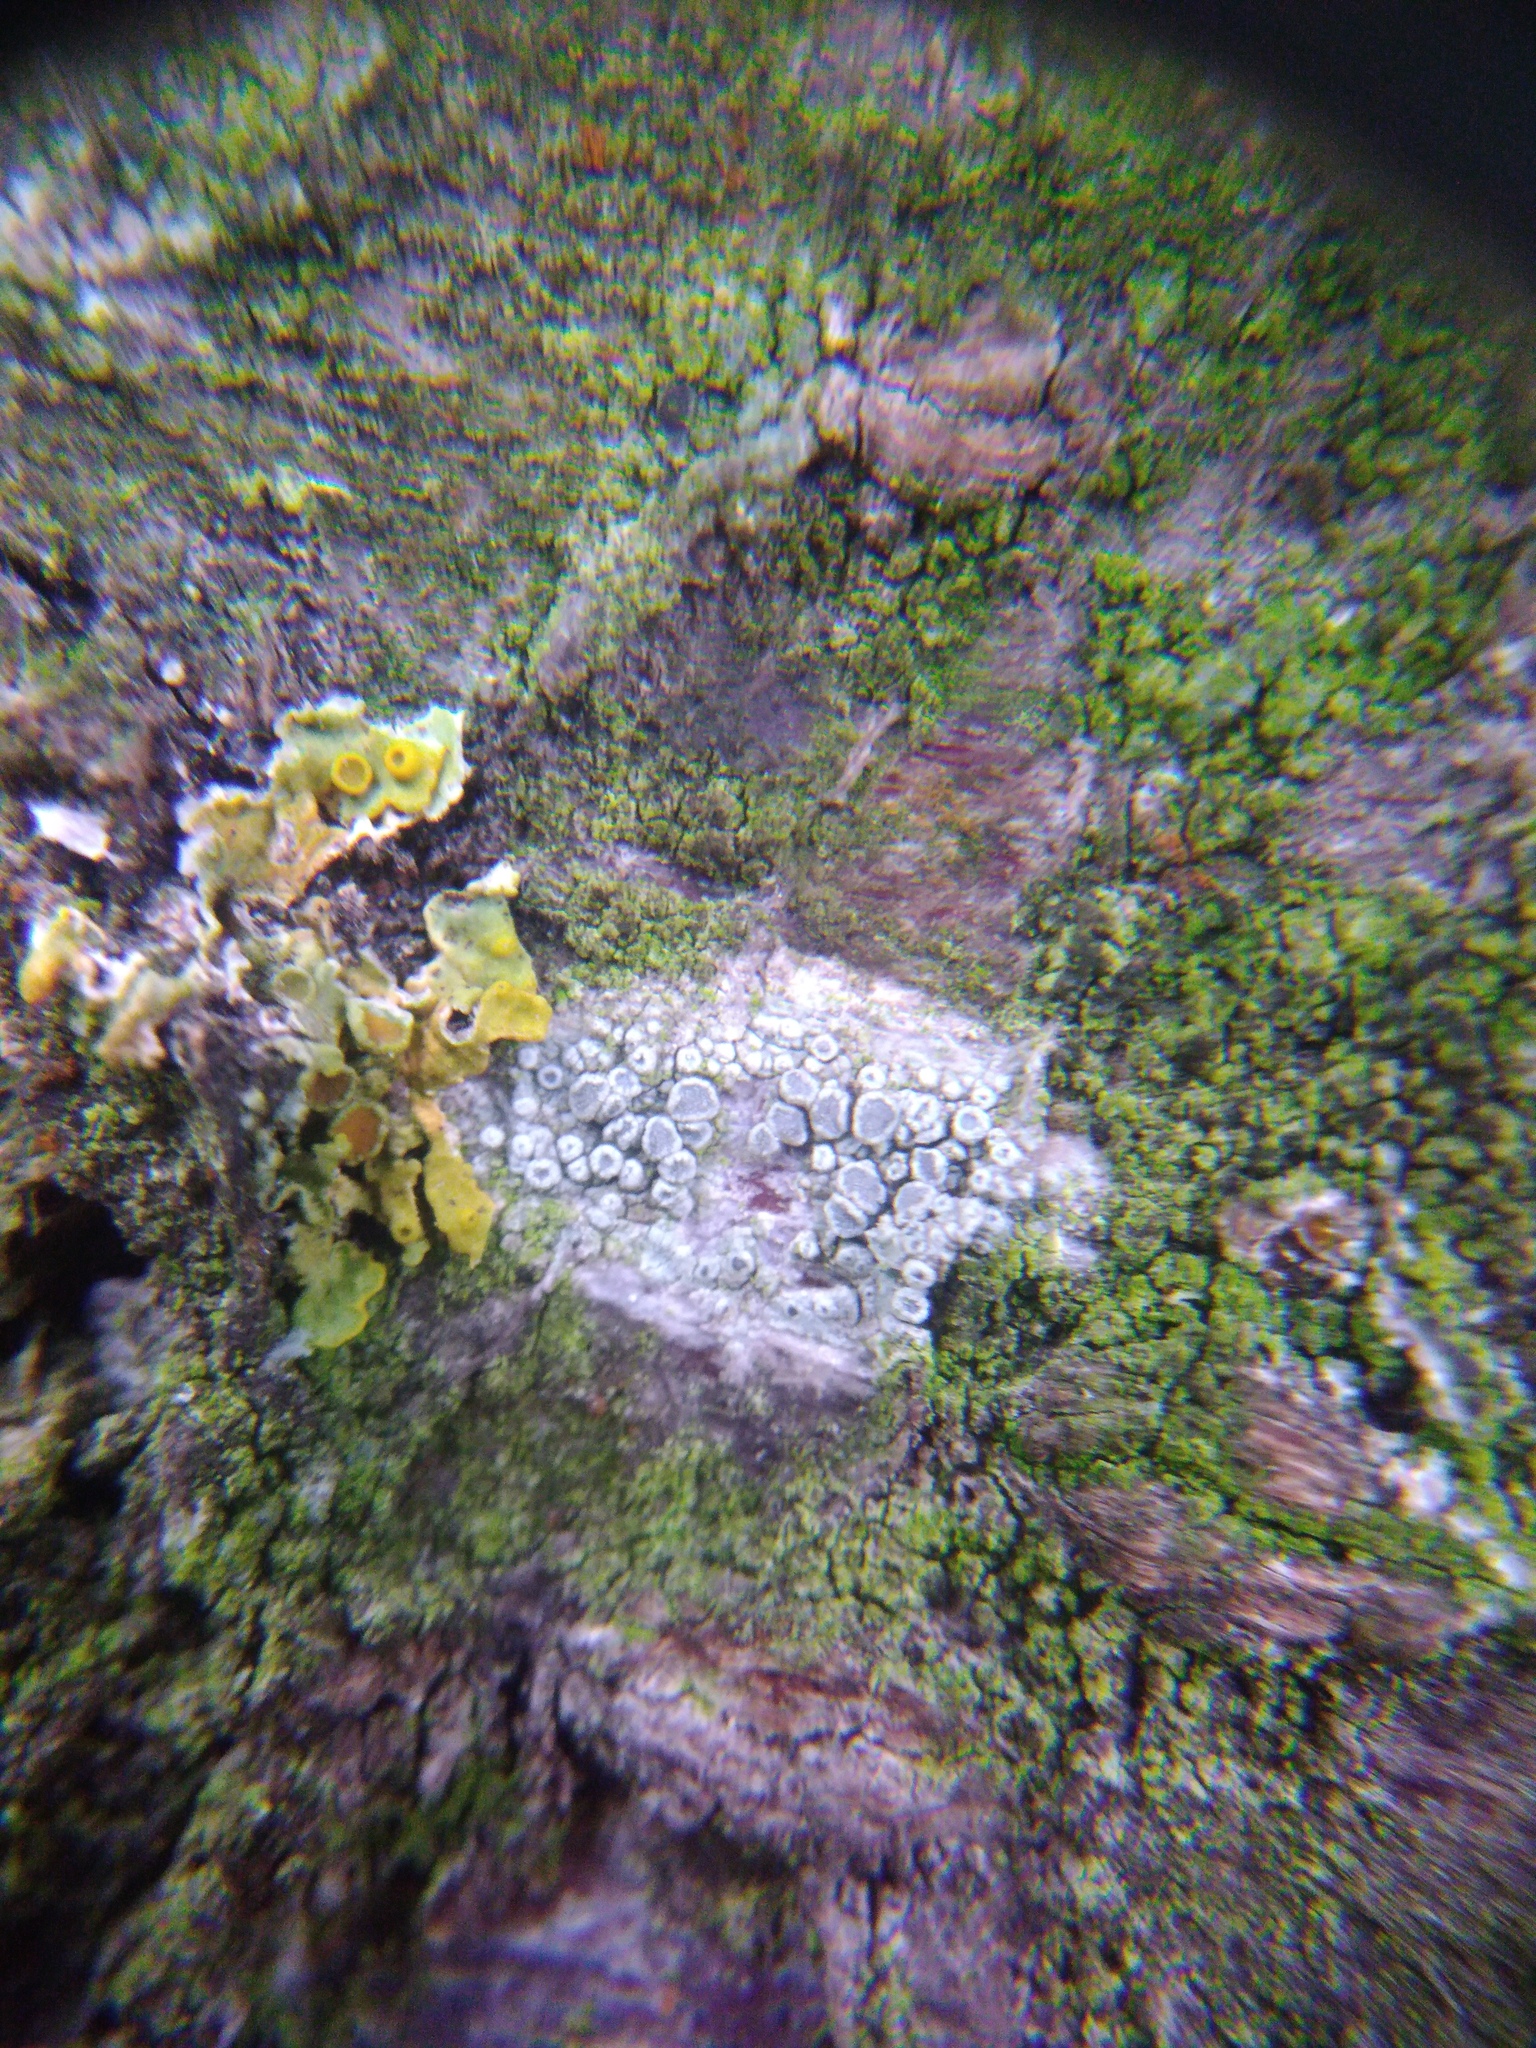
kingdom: Fungi
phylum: Ascomycota
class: Lecanoromycetes
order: Lecanorales
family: Lecanoraceae
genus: Glaucomaria
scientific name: Glaucomaria carpinea
